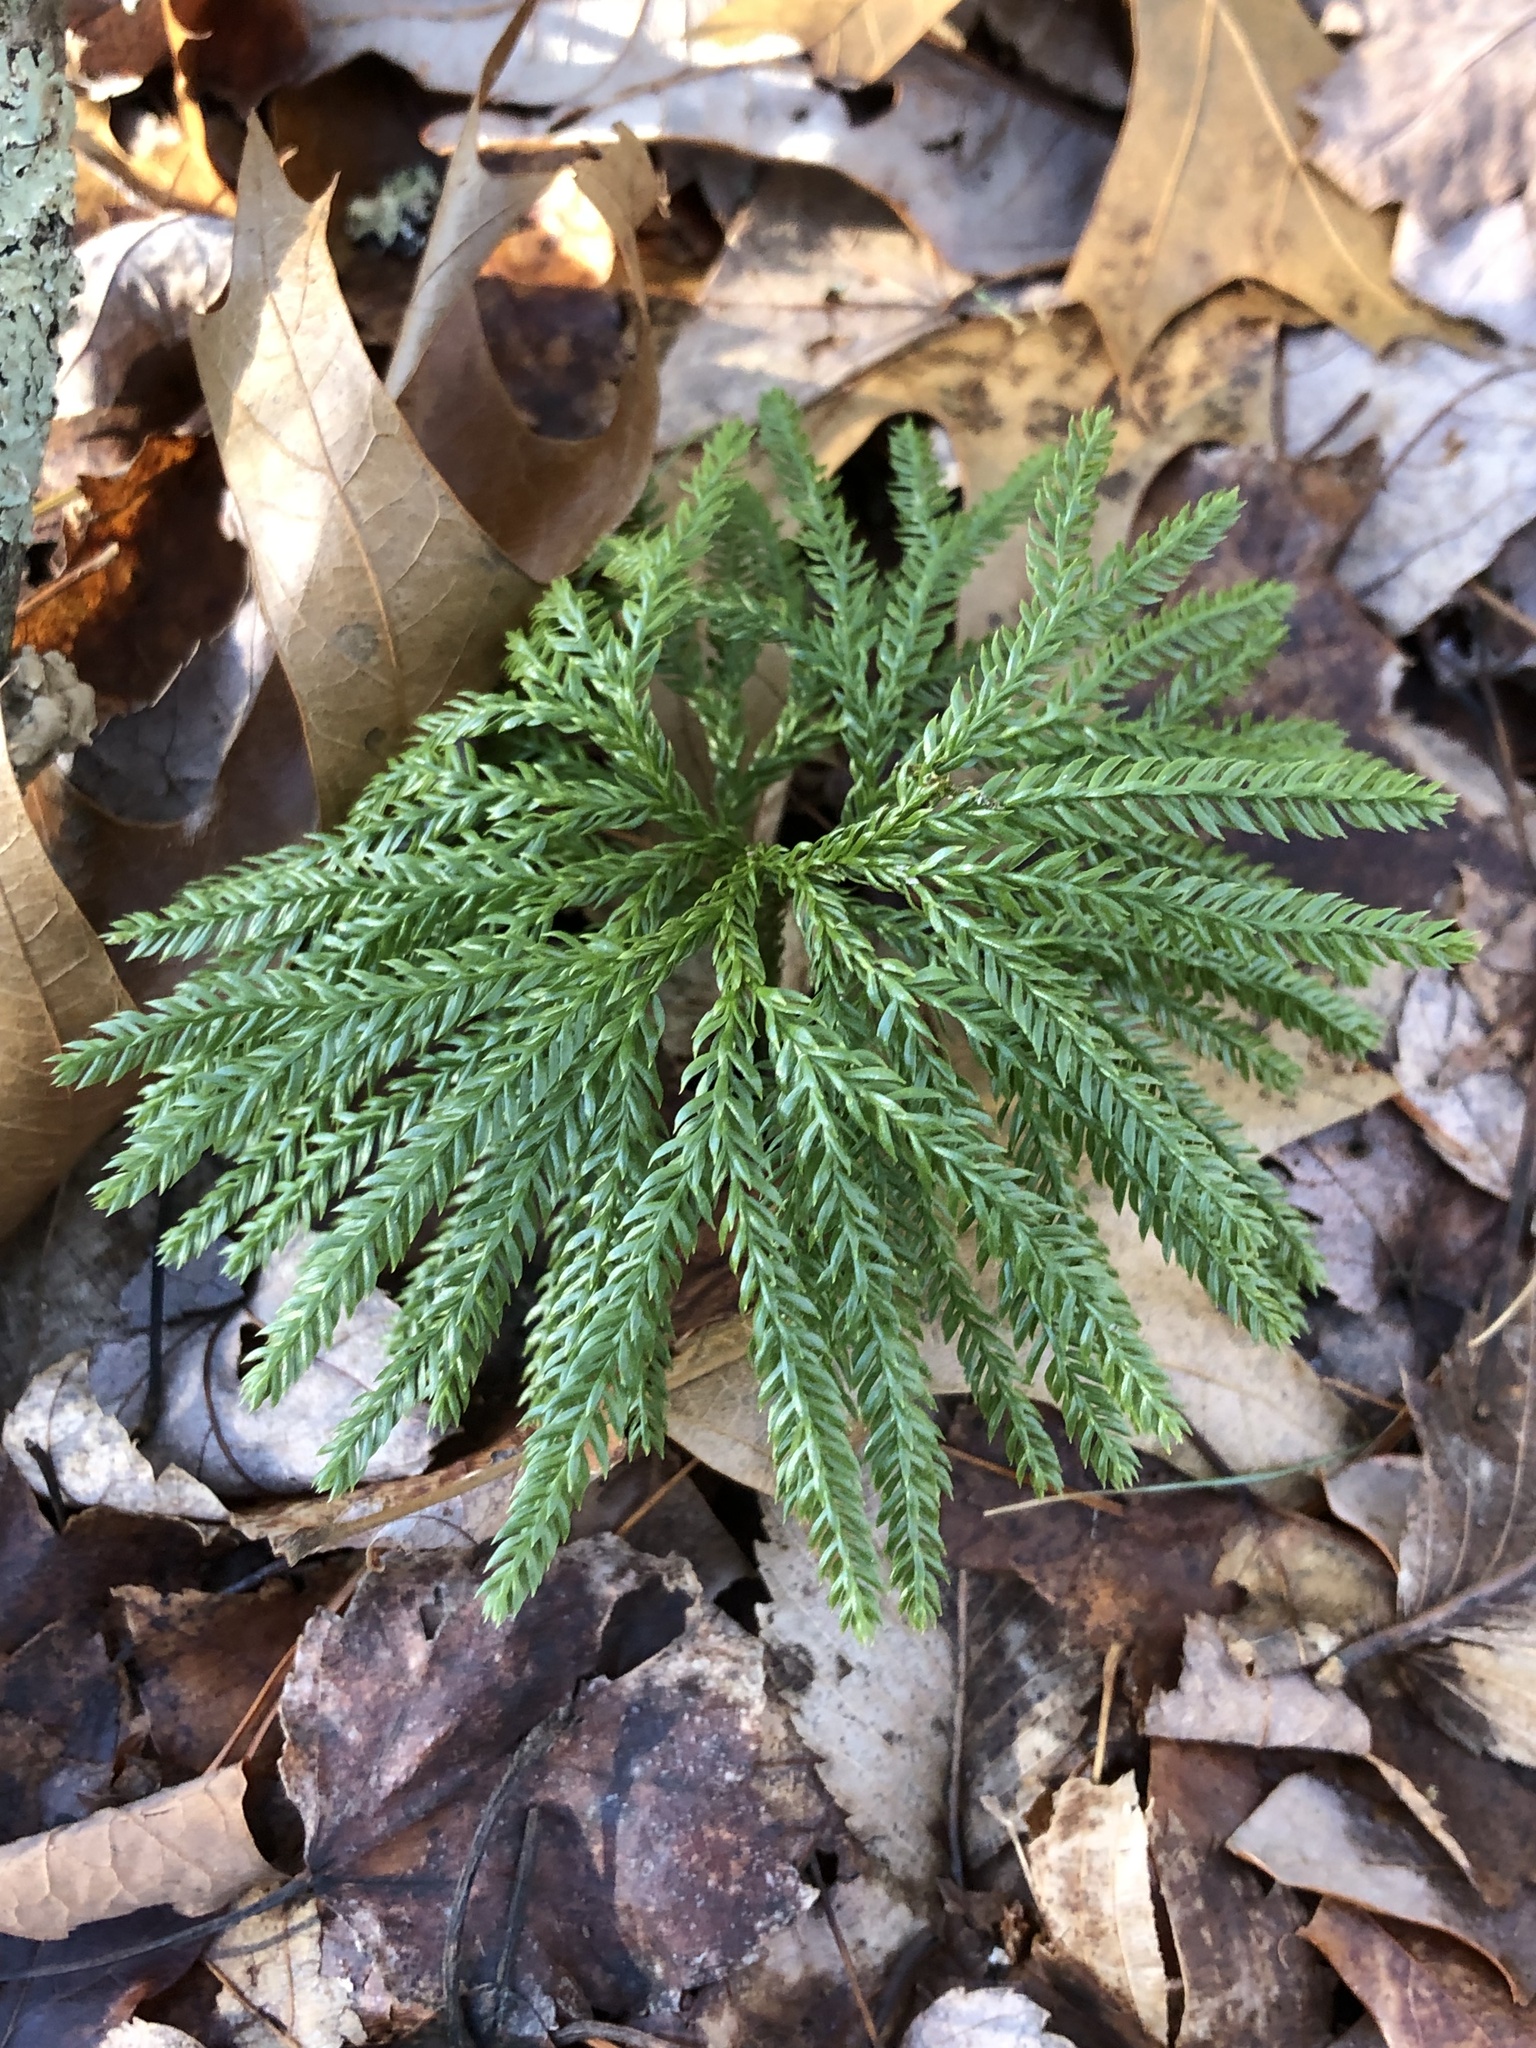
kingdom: Plantae
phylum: Tracheophyta
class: Lycopodiopsida
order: Lycopodiales
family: Lycopodiaceae
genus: Dendrolycopodium
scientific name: Dendrolycopodium obscurum
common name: Common ground-pine
